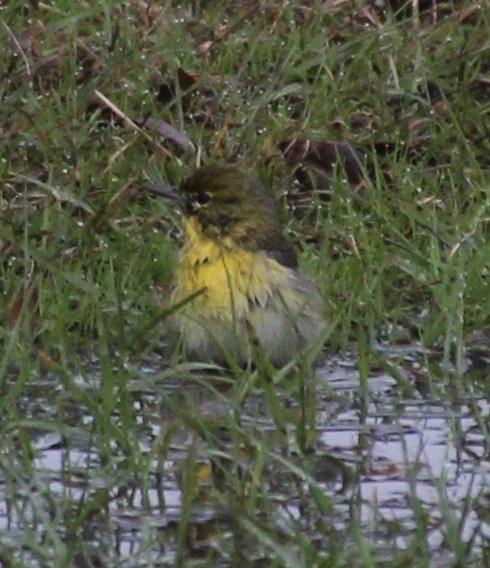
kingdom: Animalia
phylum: Chordata
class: Aves
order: Passeriformes
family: Parulidae
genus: Setophaga
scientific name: Setophaga pinus
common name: Pine warbler
